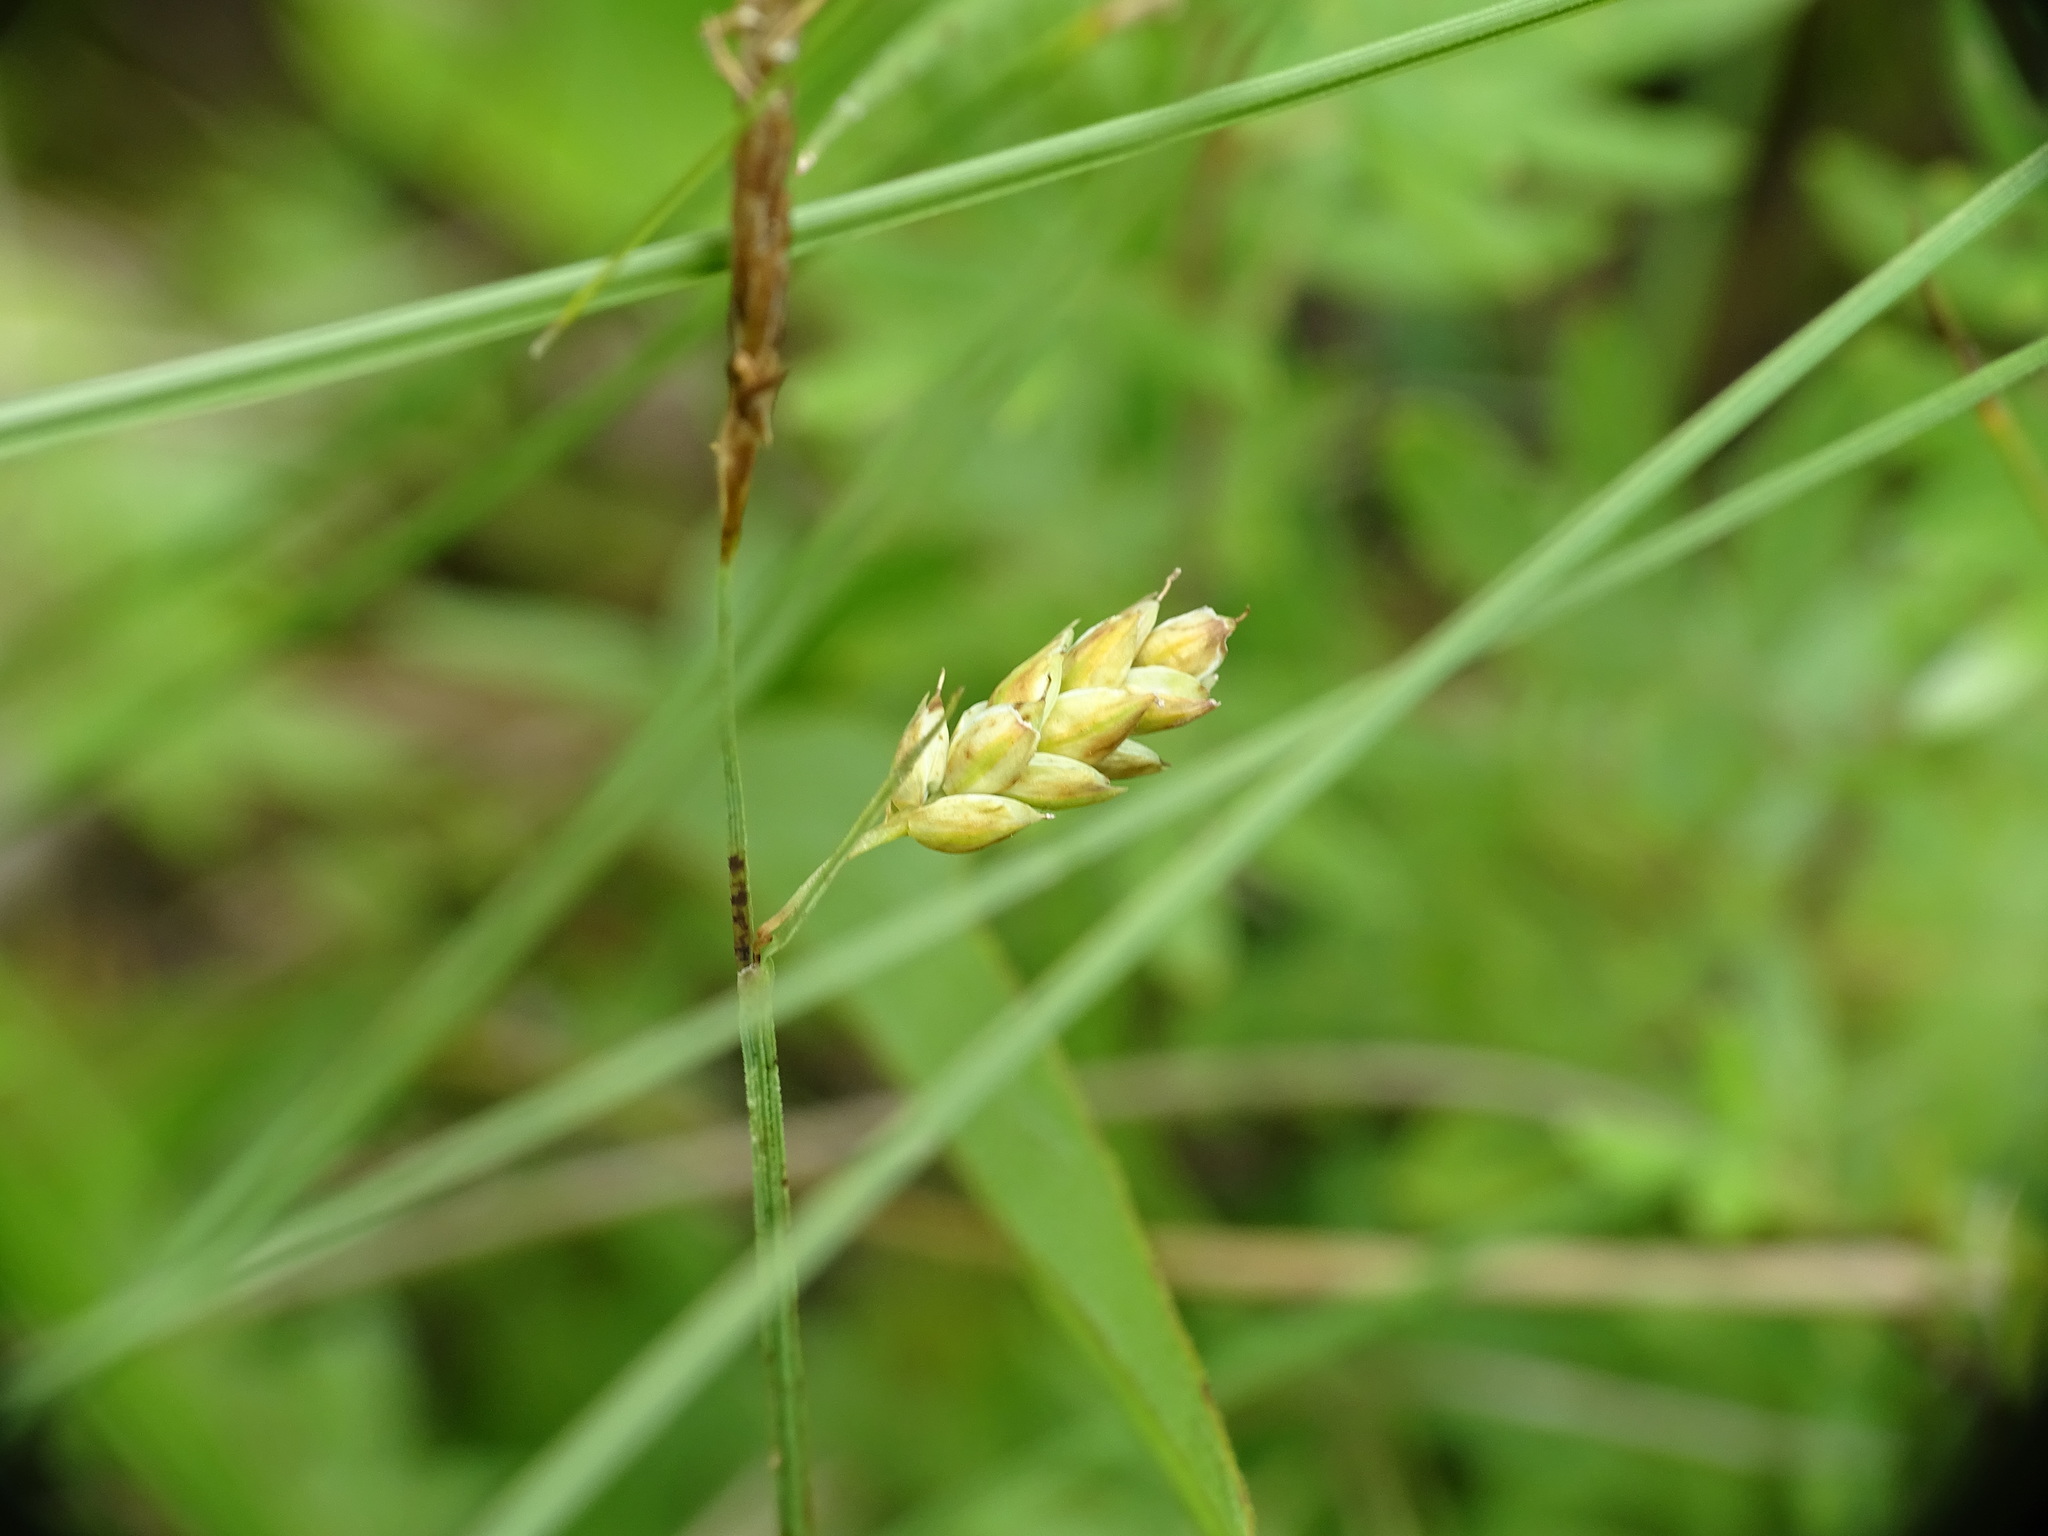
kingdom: Plantae
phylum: Tracheophyta
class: Liliopsida
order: Poales
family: Cyperaceae
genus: Carex
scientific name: Carex limosa
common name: Bog sedge
